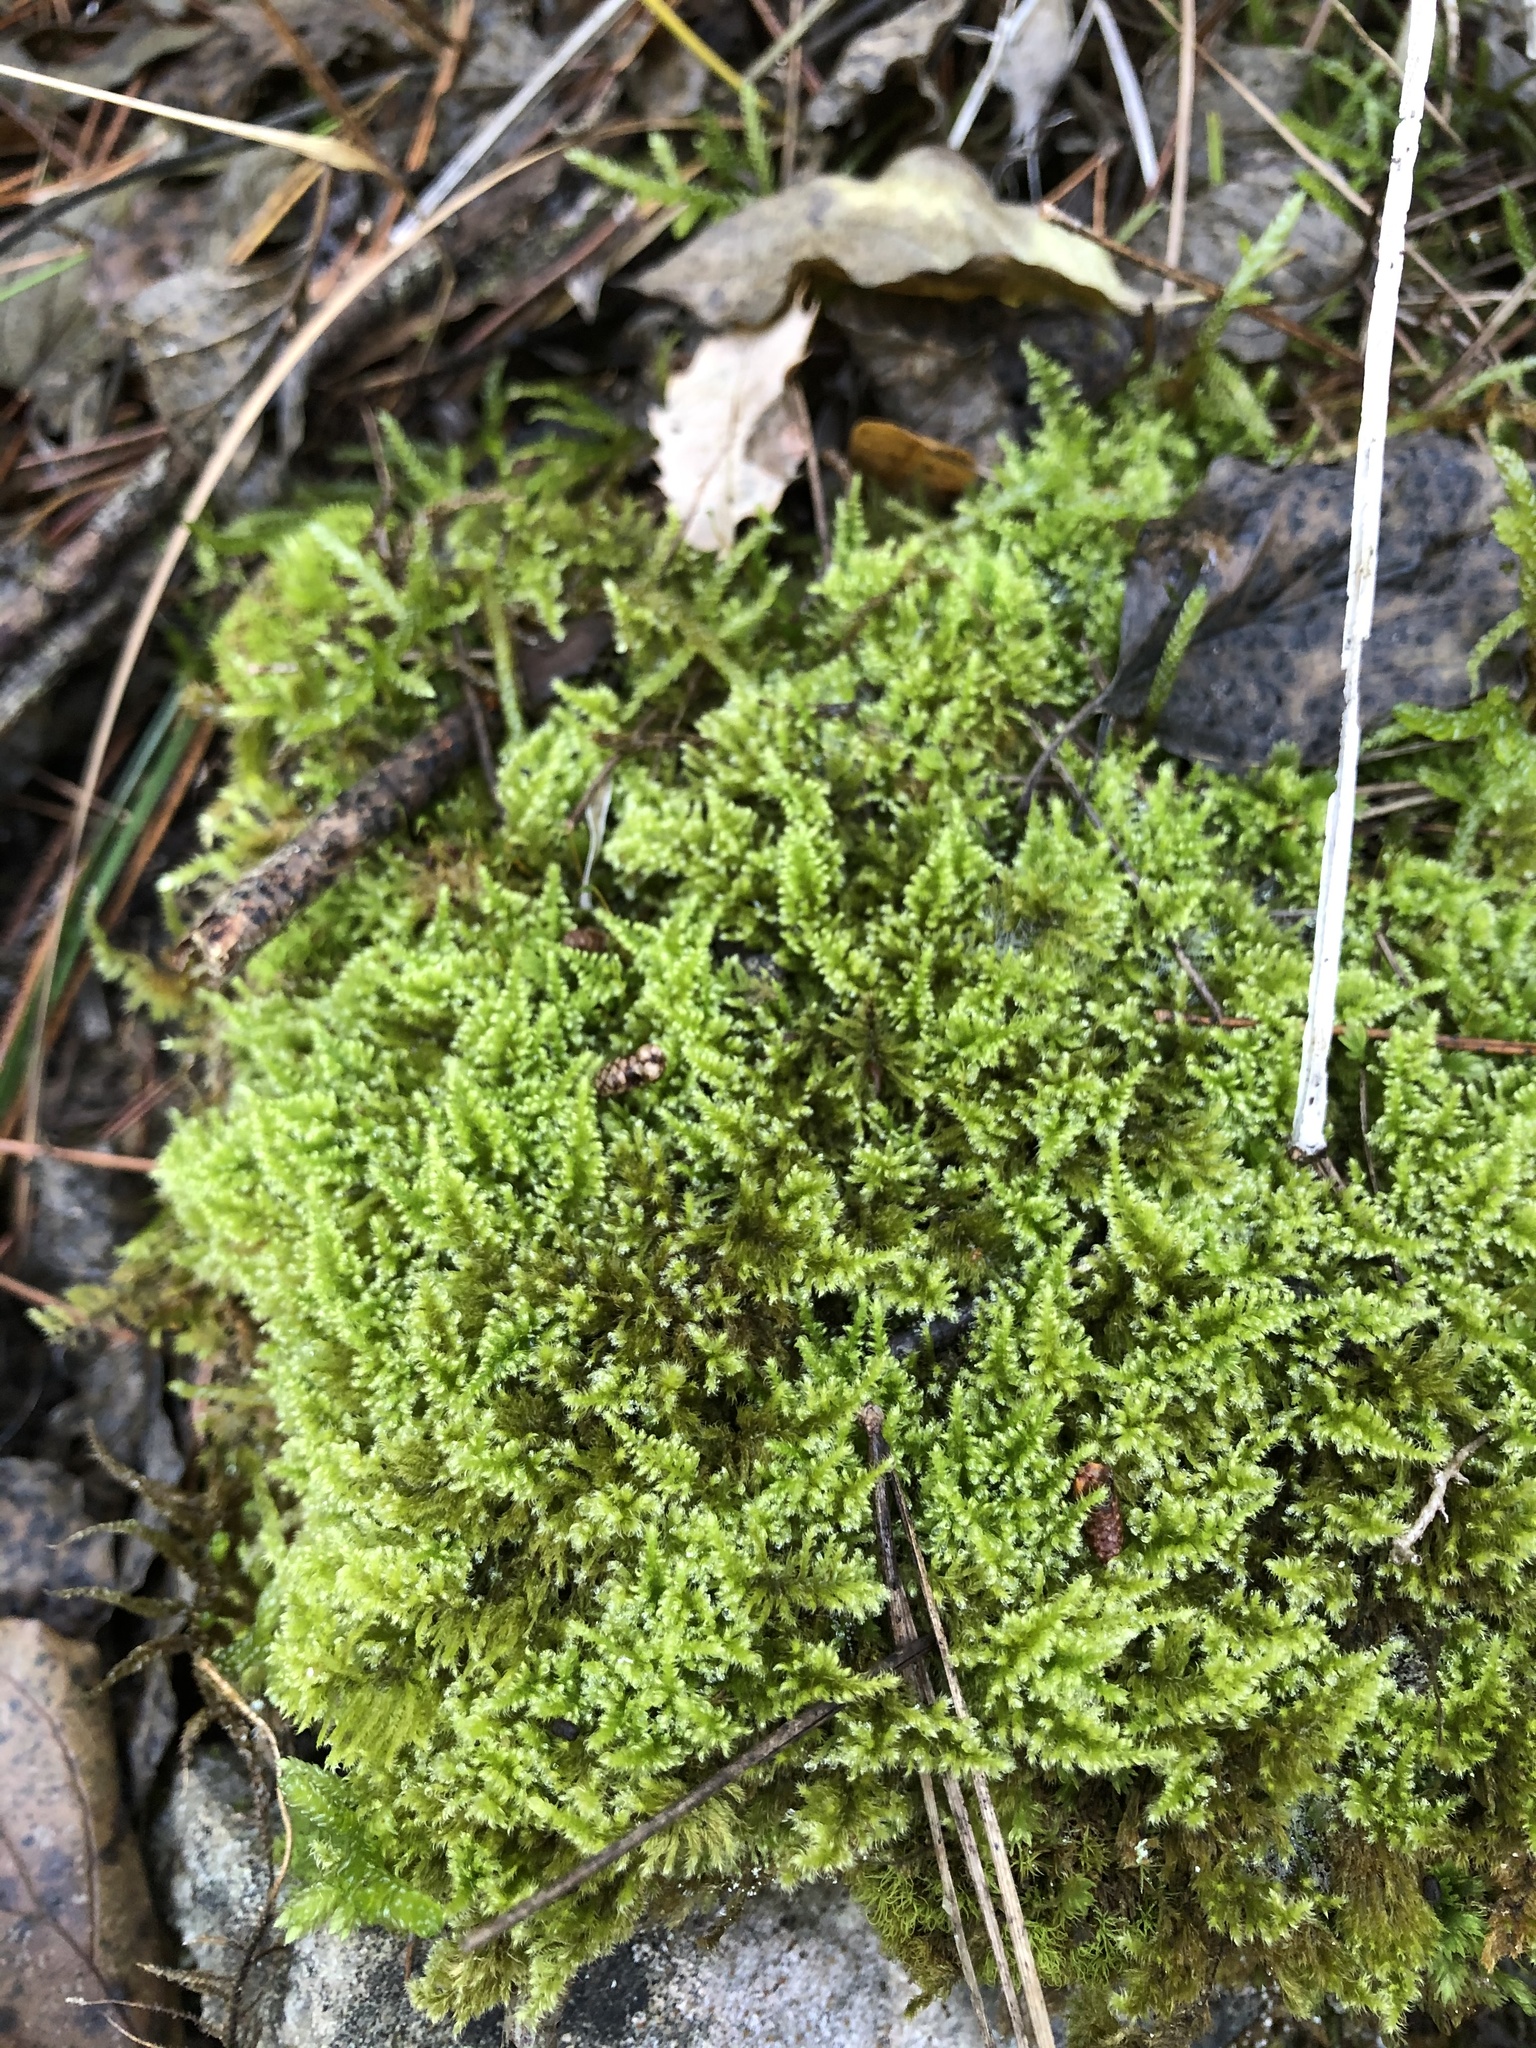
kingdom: Plantae
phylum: Bryophyta
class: Bryopsida
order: Hypnales
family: Myuriaceae
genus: Ctenidium
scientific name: Ctenidium molluscum
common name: Chalk comb-moss
